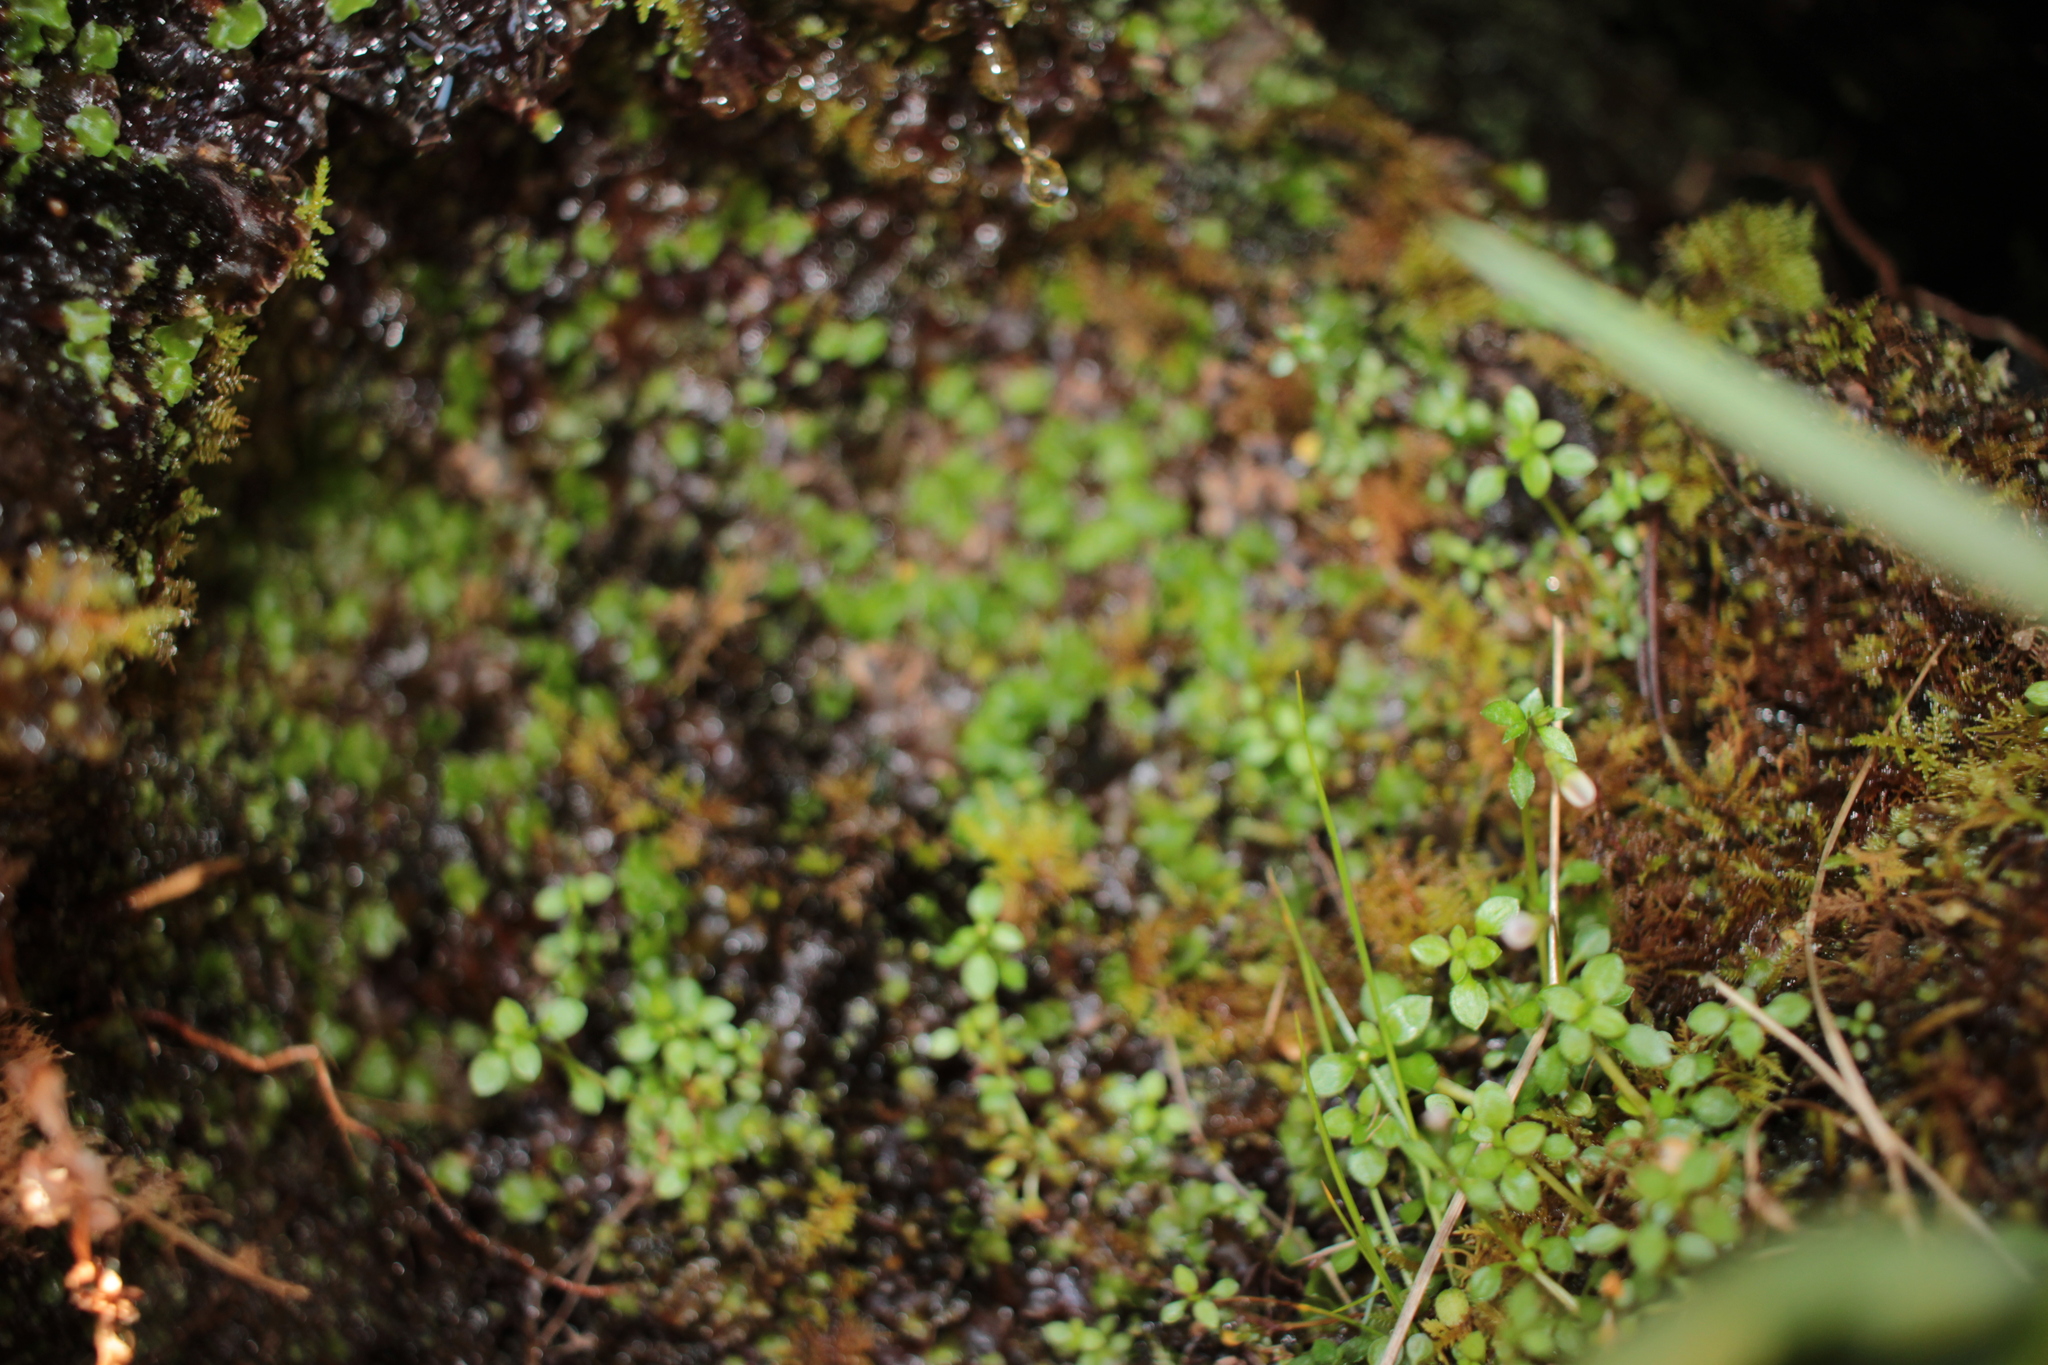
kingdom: Plantae
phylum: Tracheophyta
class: Magnoliopsida
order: Gentianales
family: Rubiaceae
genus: Houstonia
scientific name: Houstonia serpyllifolia
